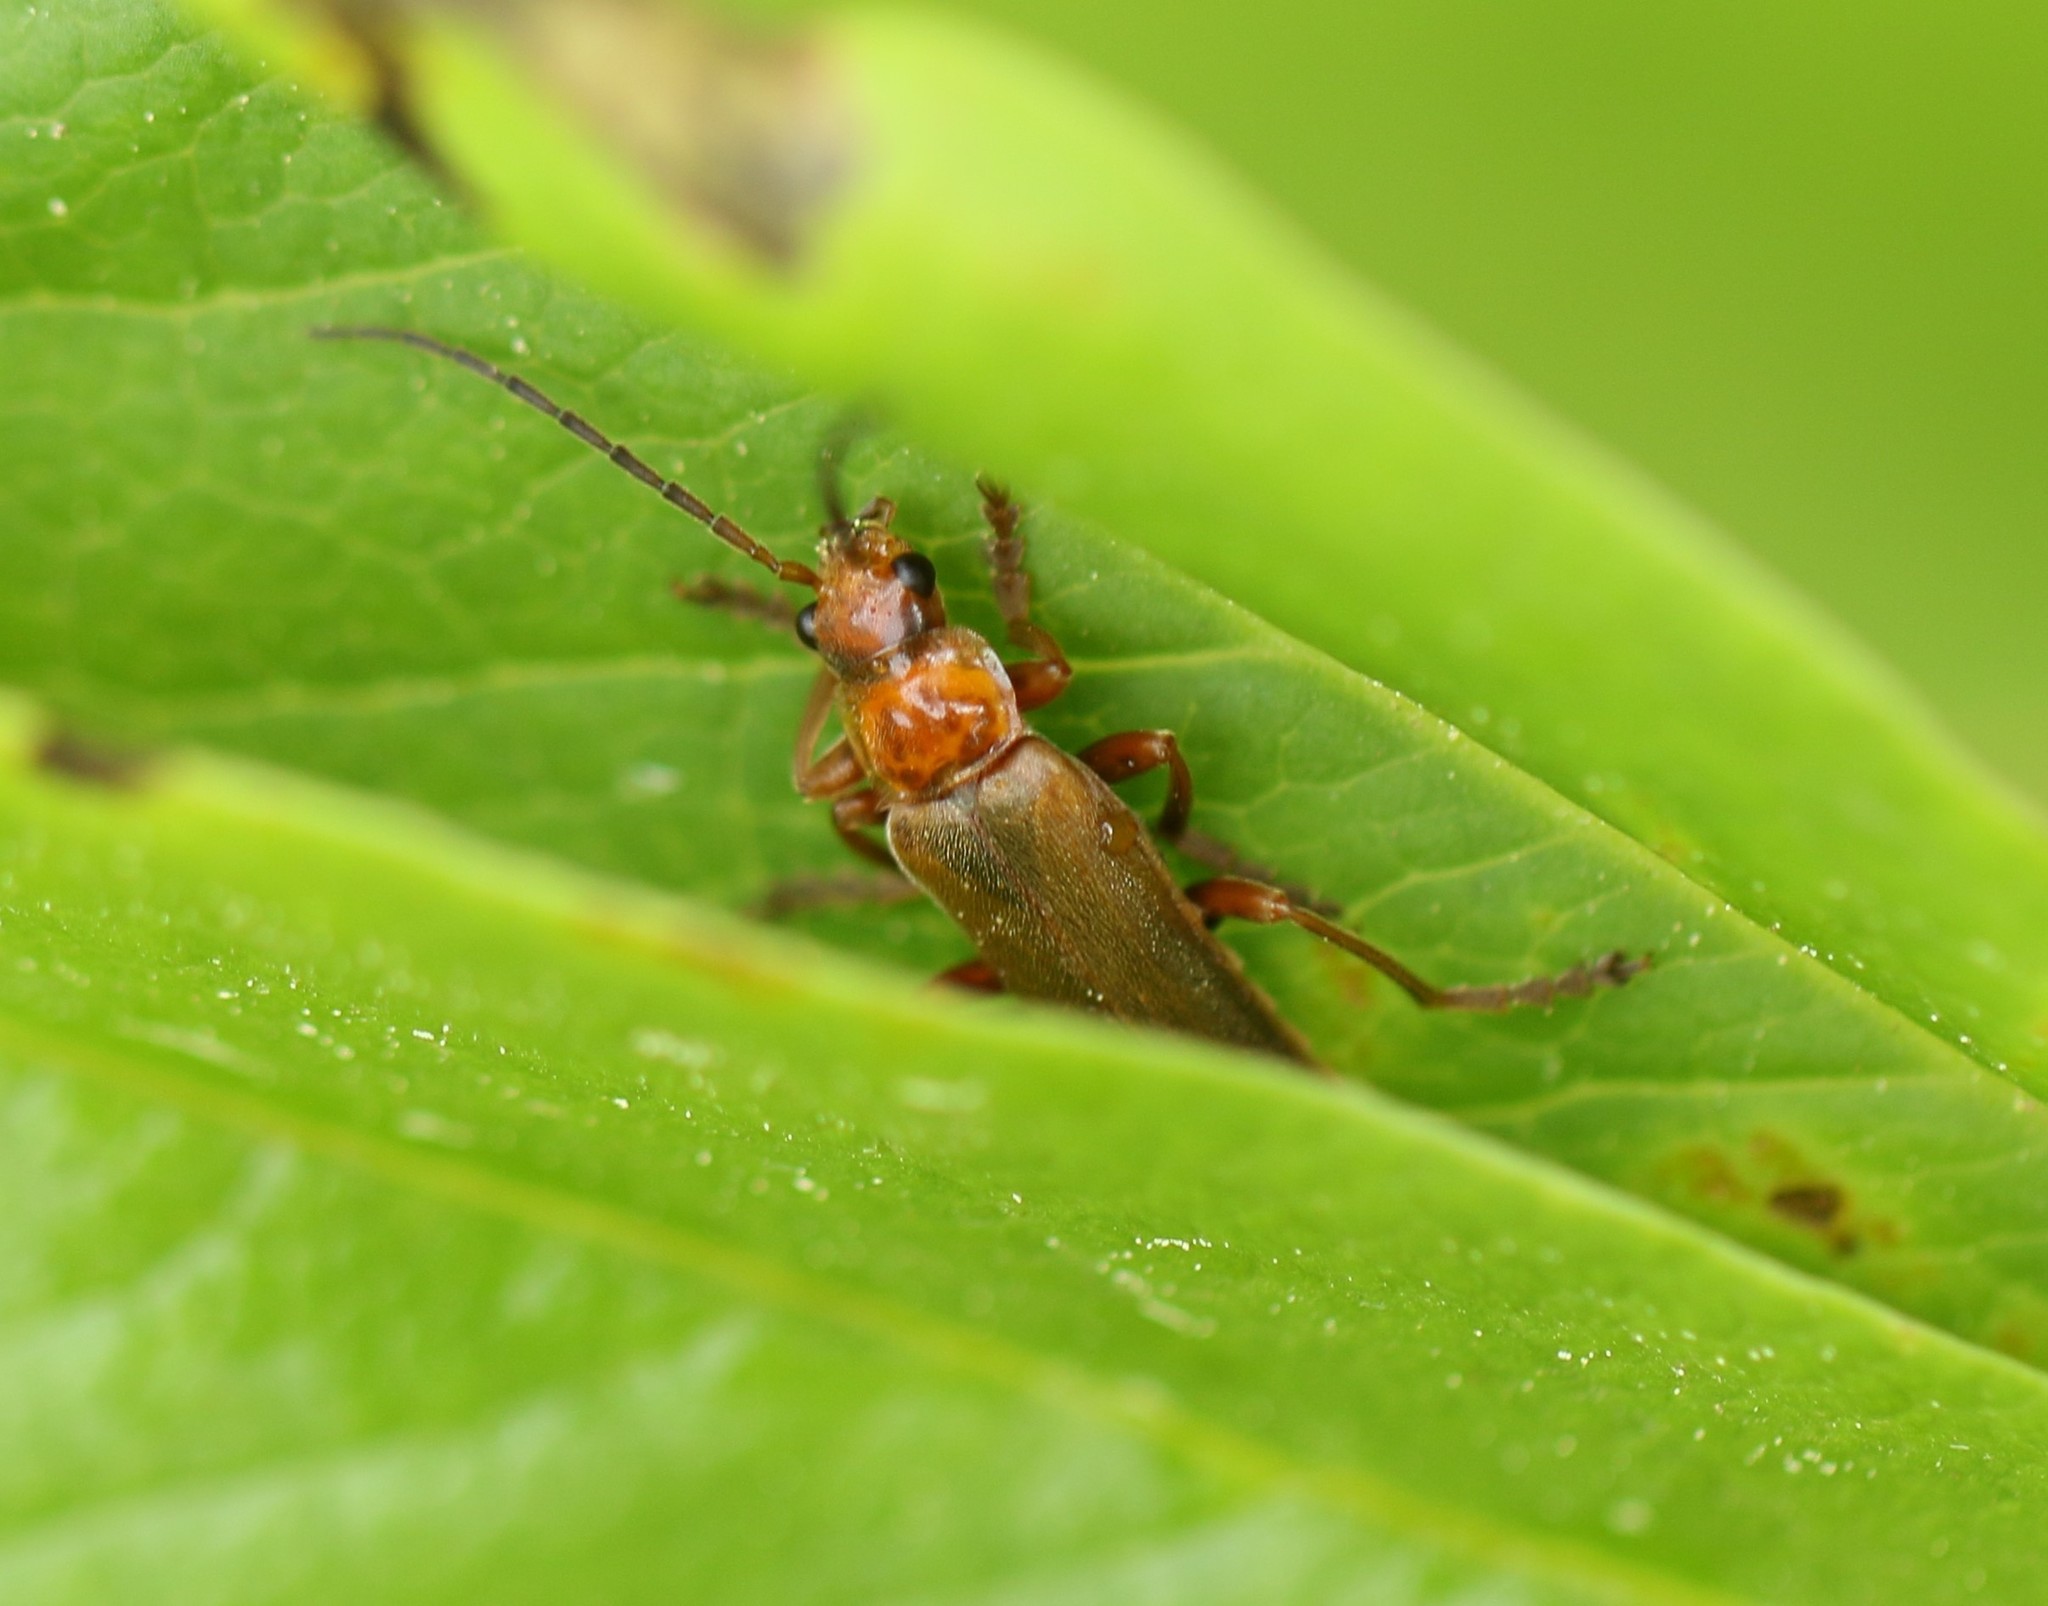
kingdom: Animalia
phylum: Arthropoda
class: Insecta
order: Coleoptera
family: Cantharidae
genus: Cantharis
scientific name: Cantharis rufa
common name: Red-spotted soldier beetle
